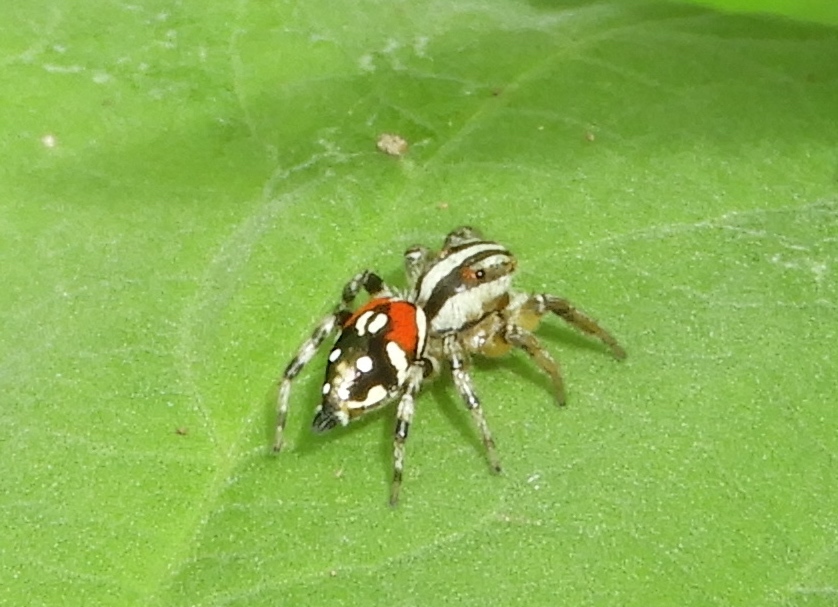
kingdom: Animalia
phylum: Arthropoda
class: Arachnida
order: Araneae
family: Salticidae
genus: Nycerella
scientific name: Nycerella delecta
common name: Jumping spiders
